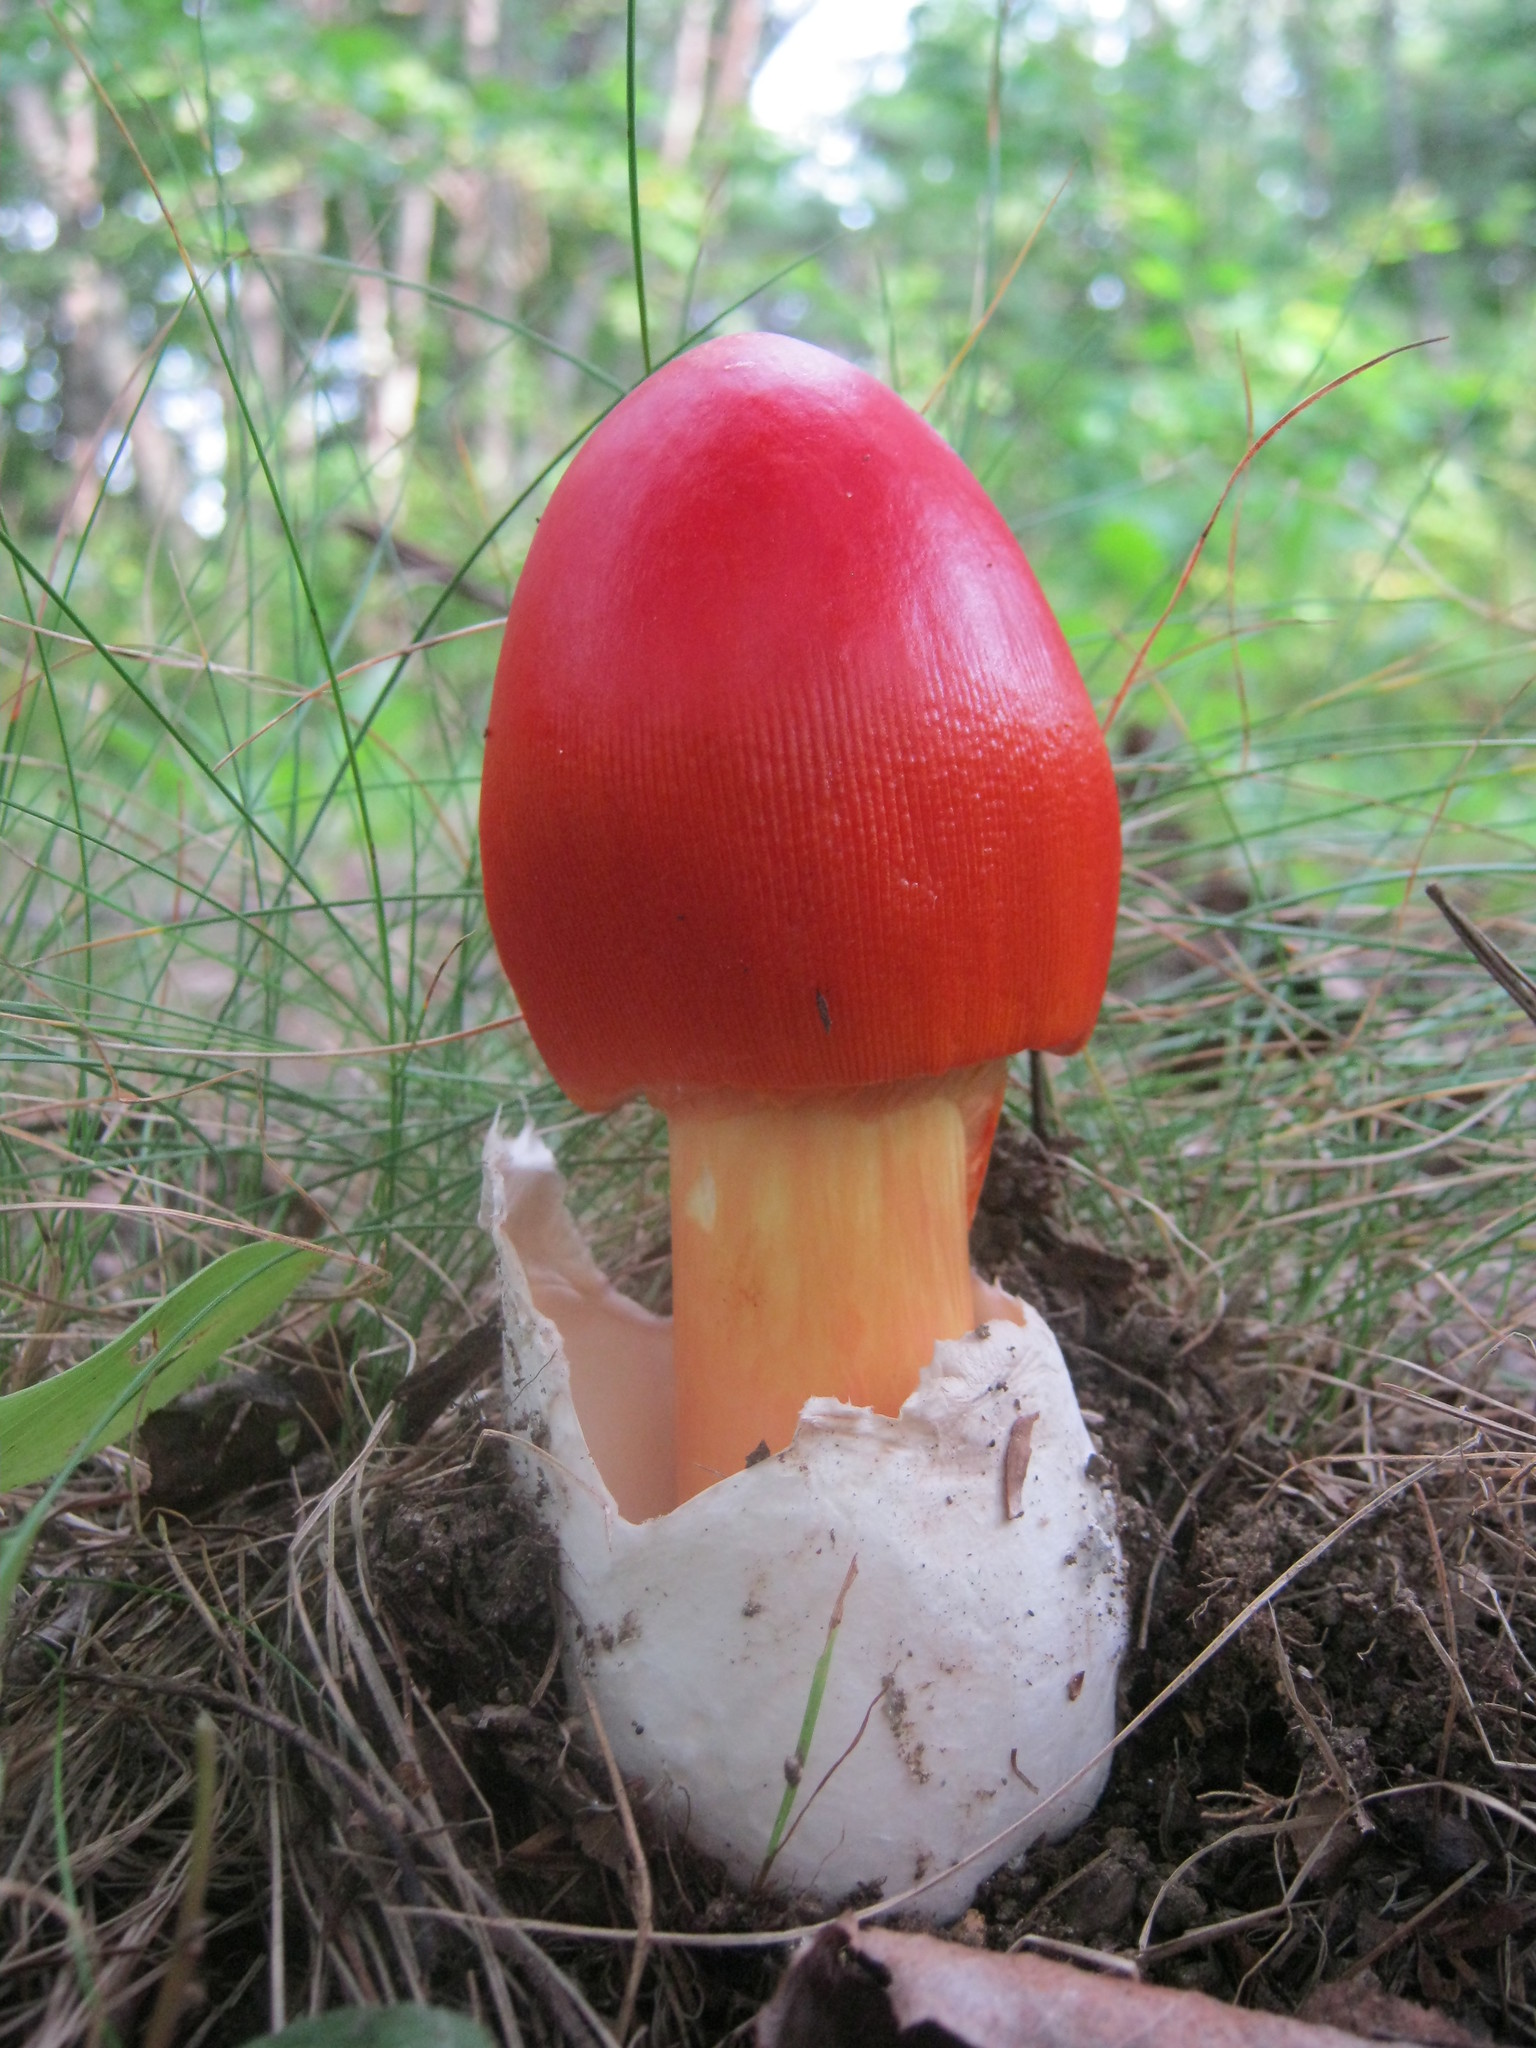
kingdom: Fungi
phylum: Basidiomycota
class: Agaricomycetes
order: Agaricales
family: Amanitaceae
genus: Amanita
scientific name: Amanita jacksonii
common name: Jackson's slender caesar
